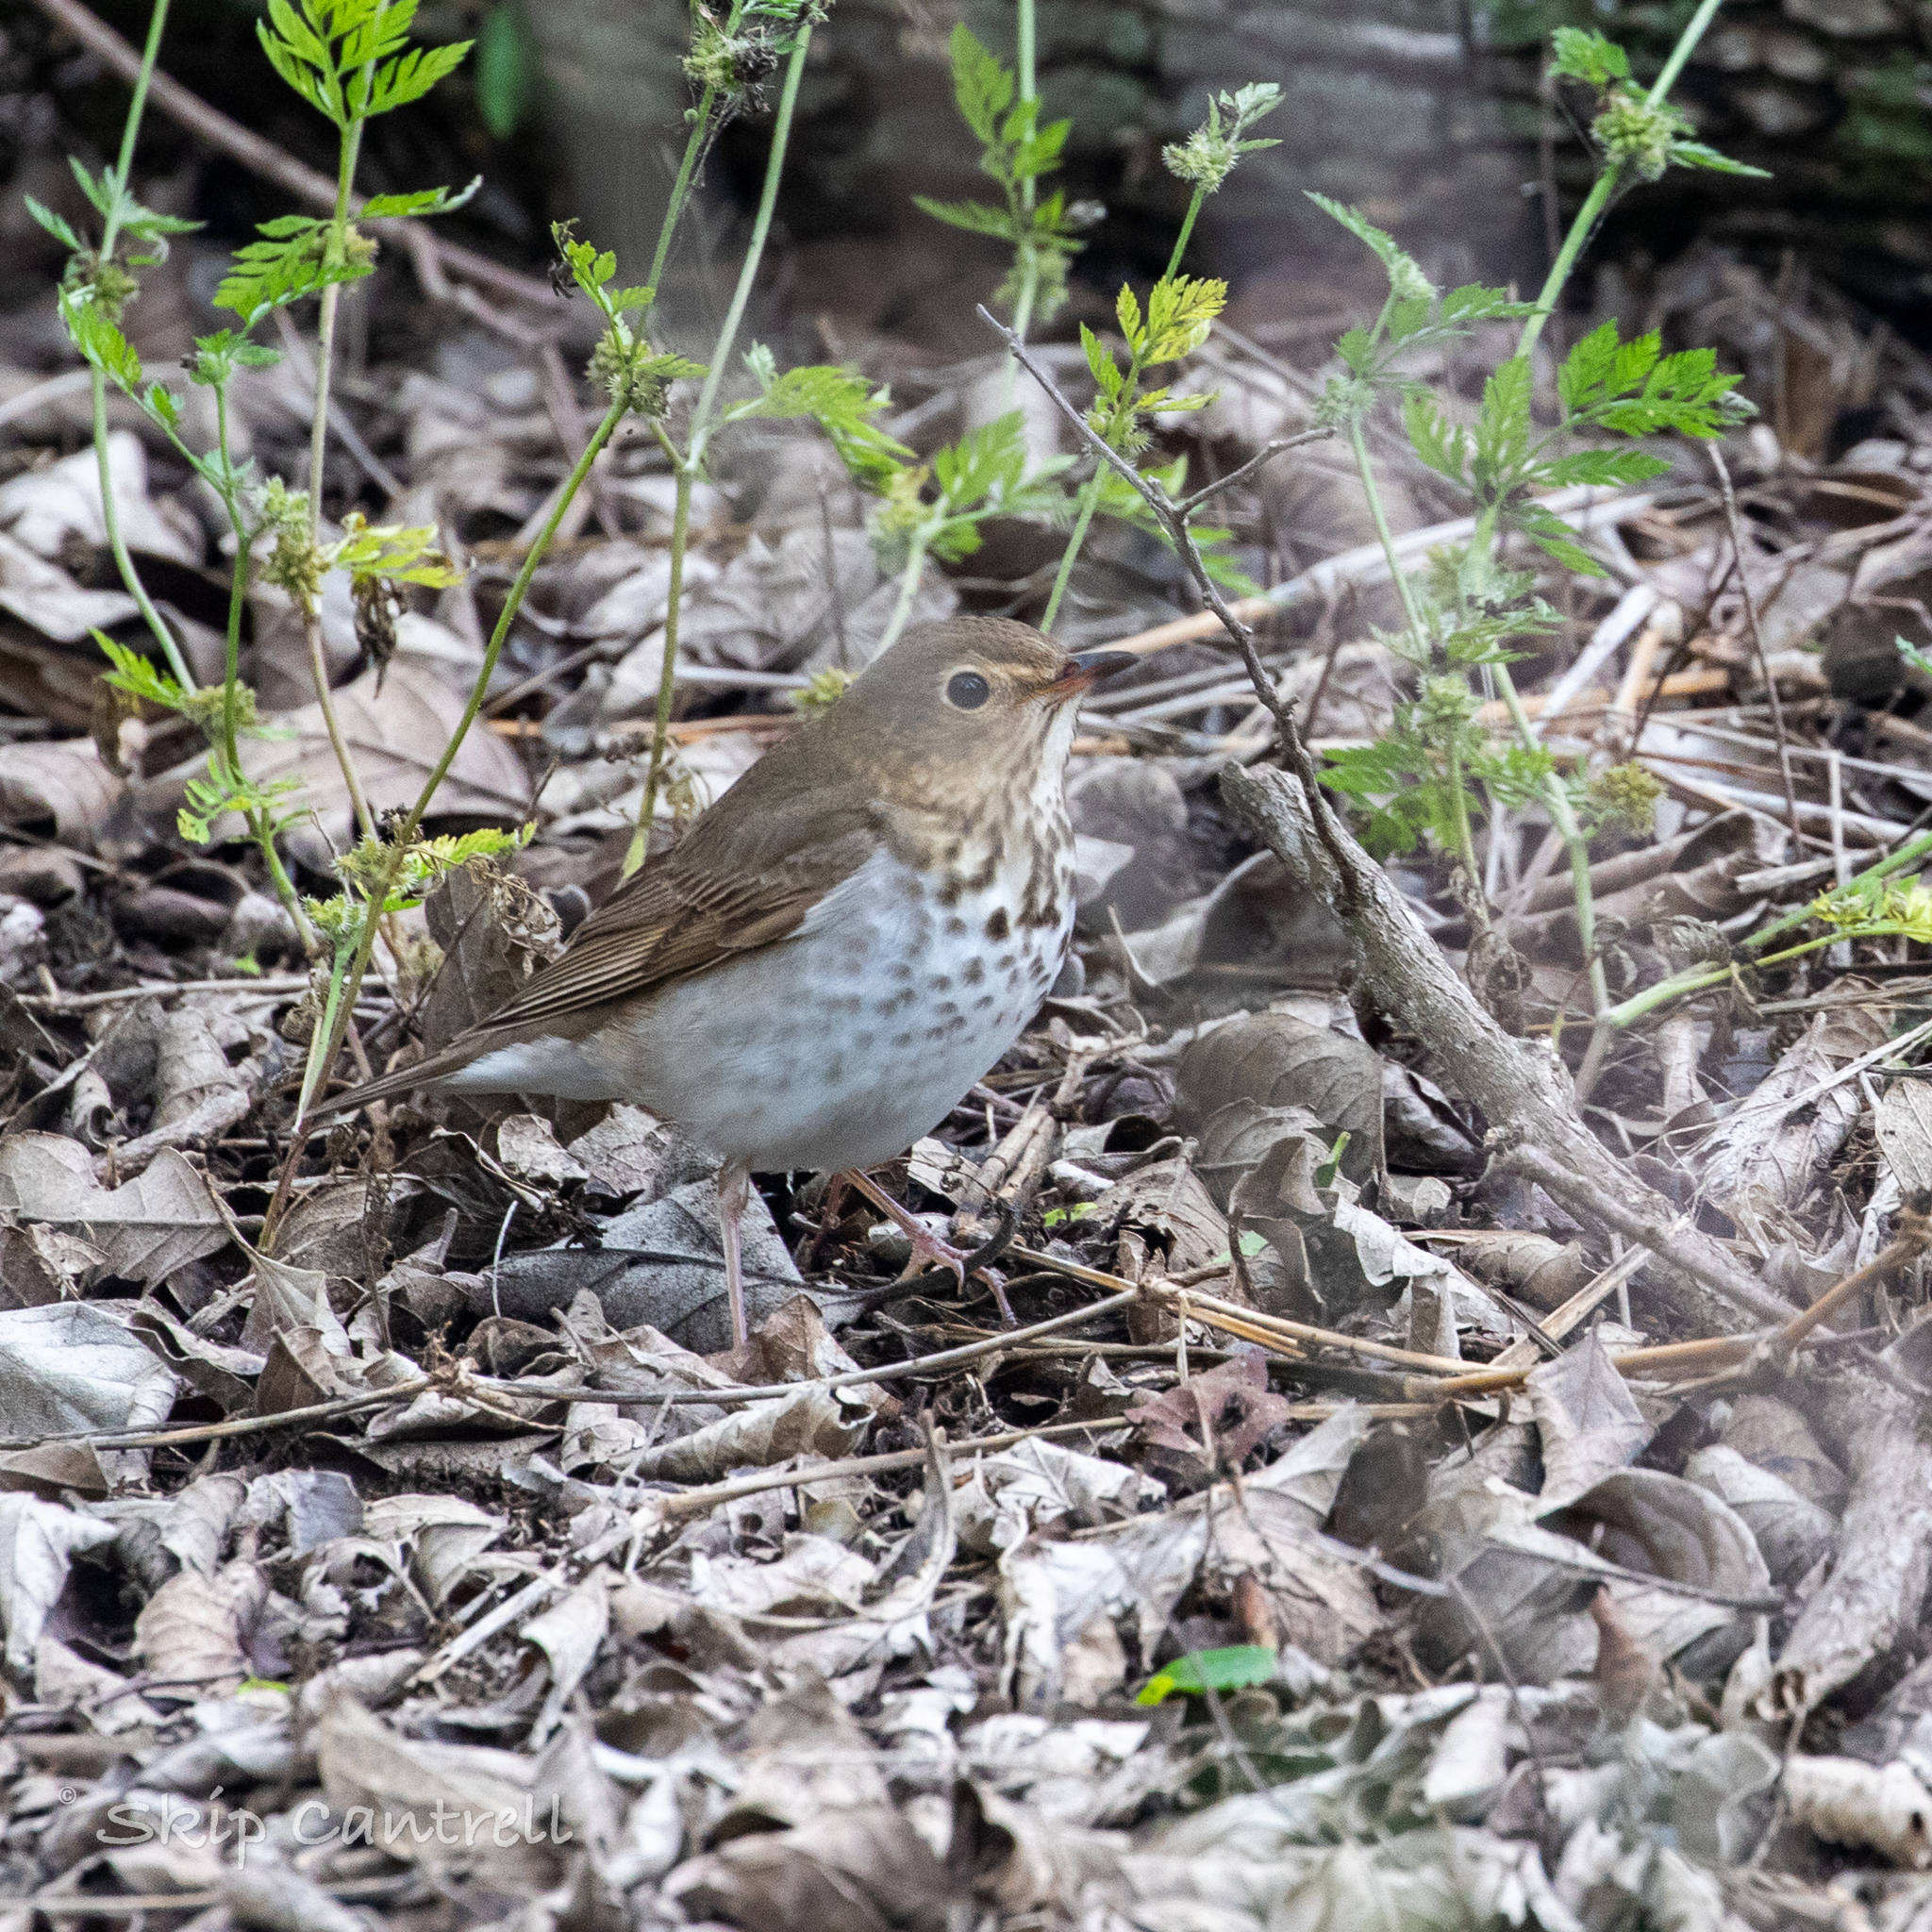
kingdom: Animalia
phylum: Chordata
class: Aves
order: Passeriformes
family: Turdidae
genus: Catharus
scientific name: Catharus ustulatus
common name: Swainson's thrush
